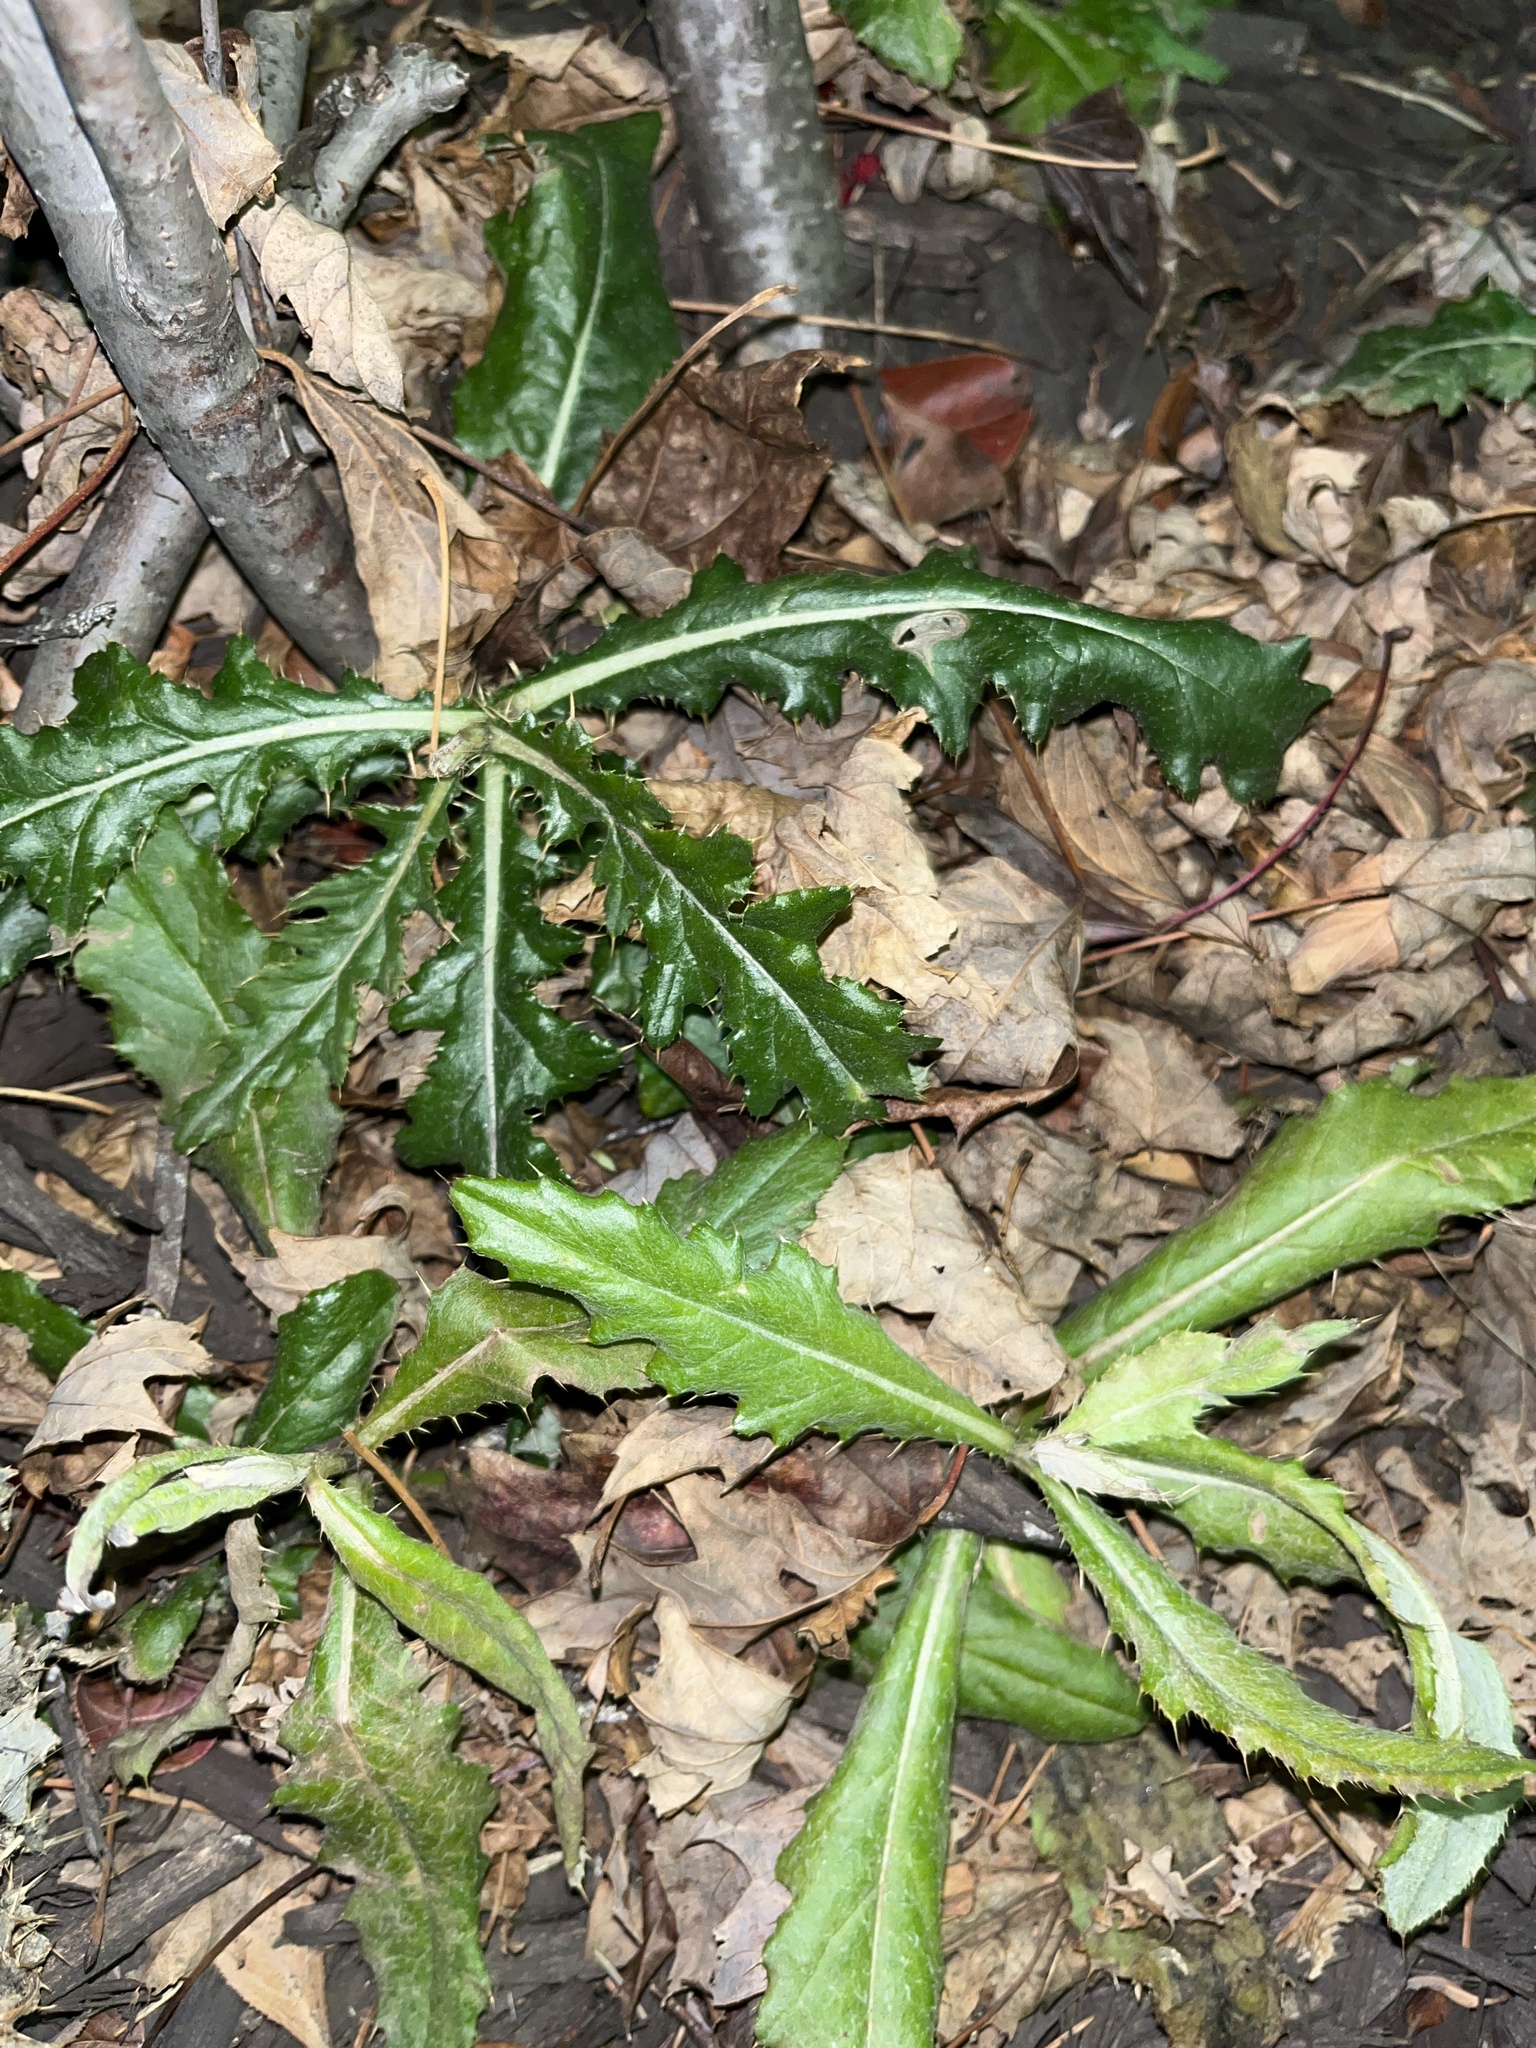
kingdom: Plantae
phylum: Tracheophyta
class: Magnoliopsida
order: Asterales
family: Asteraceae
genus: Cirsium
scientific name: Cirsium arvense
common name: Creeping thistle
